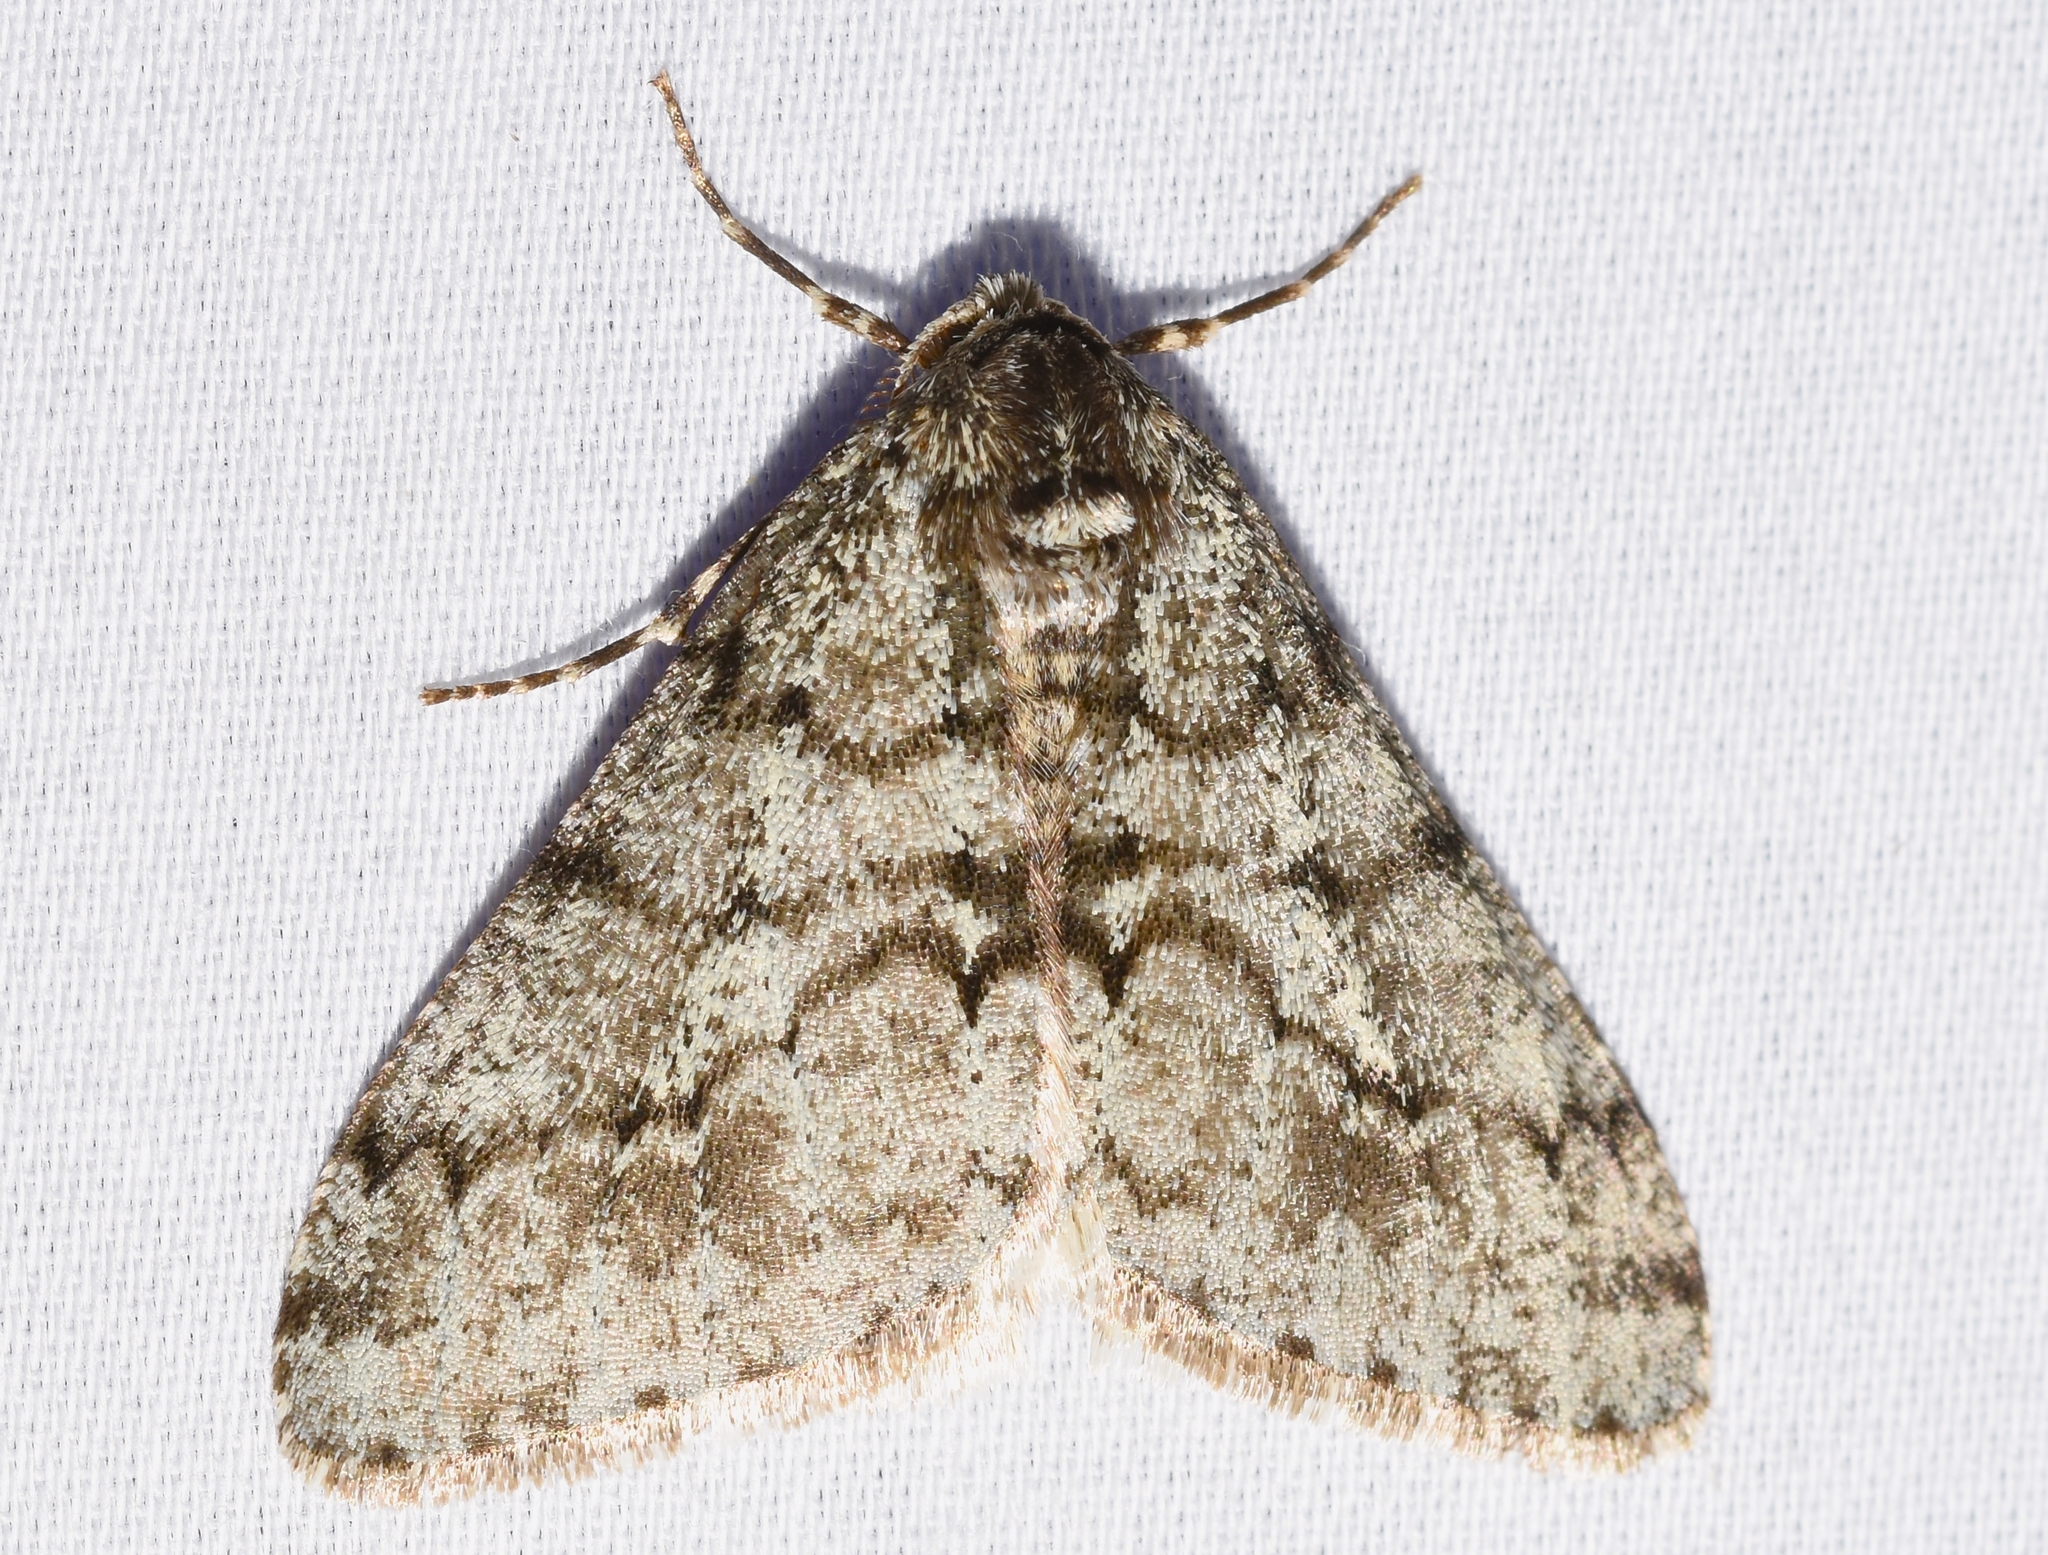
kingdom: Animalia
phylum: Arthropoda
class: Insecta
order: Lepidoptera
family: Geometridae
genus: Phigalia
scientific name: Phigalia strigataria
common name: Small phigalia
